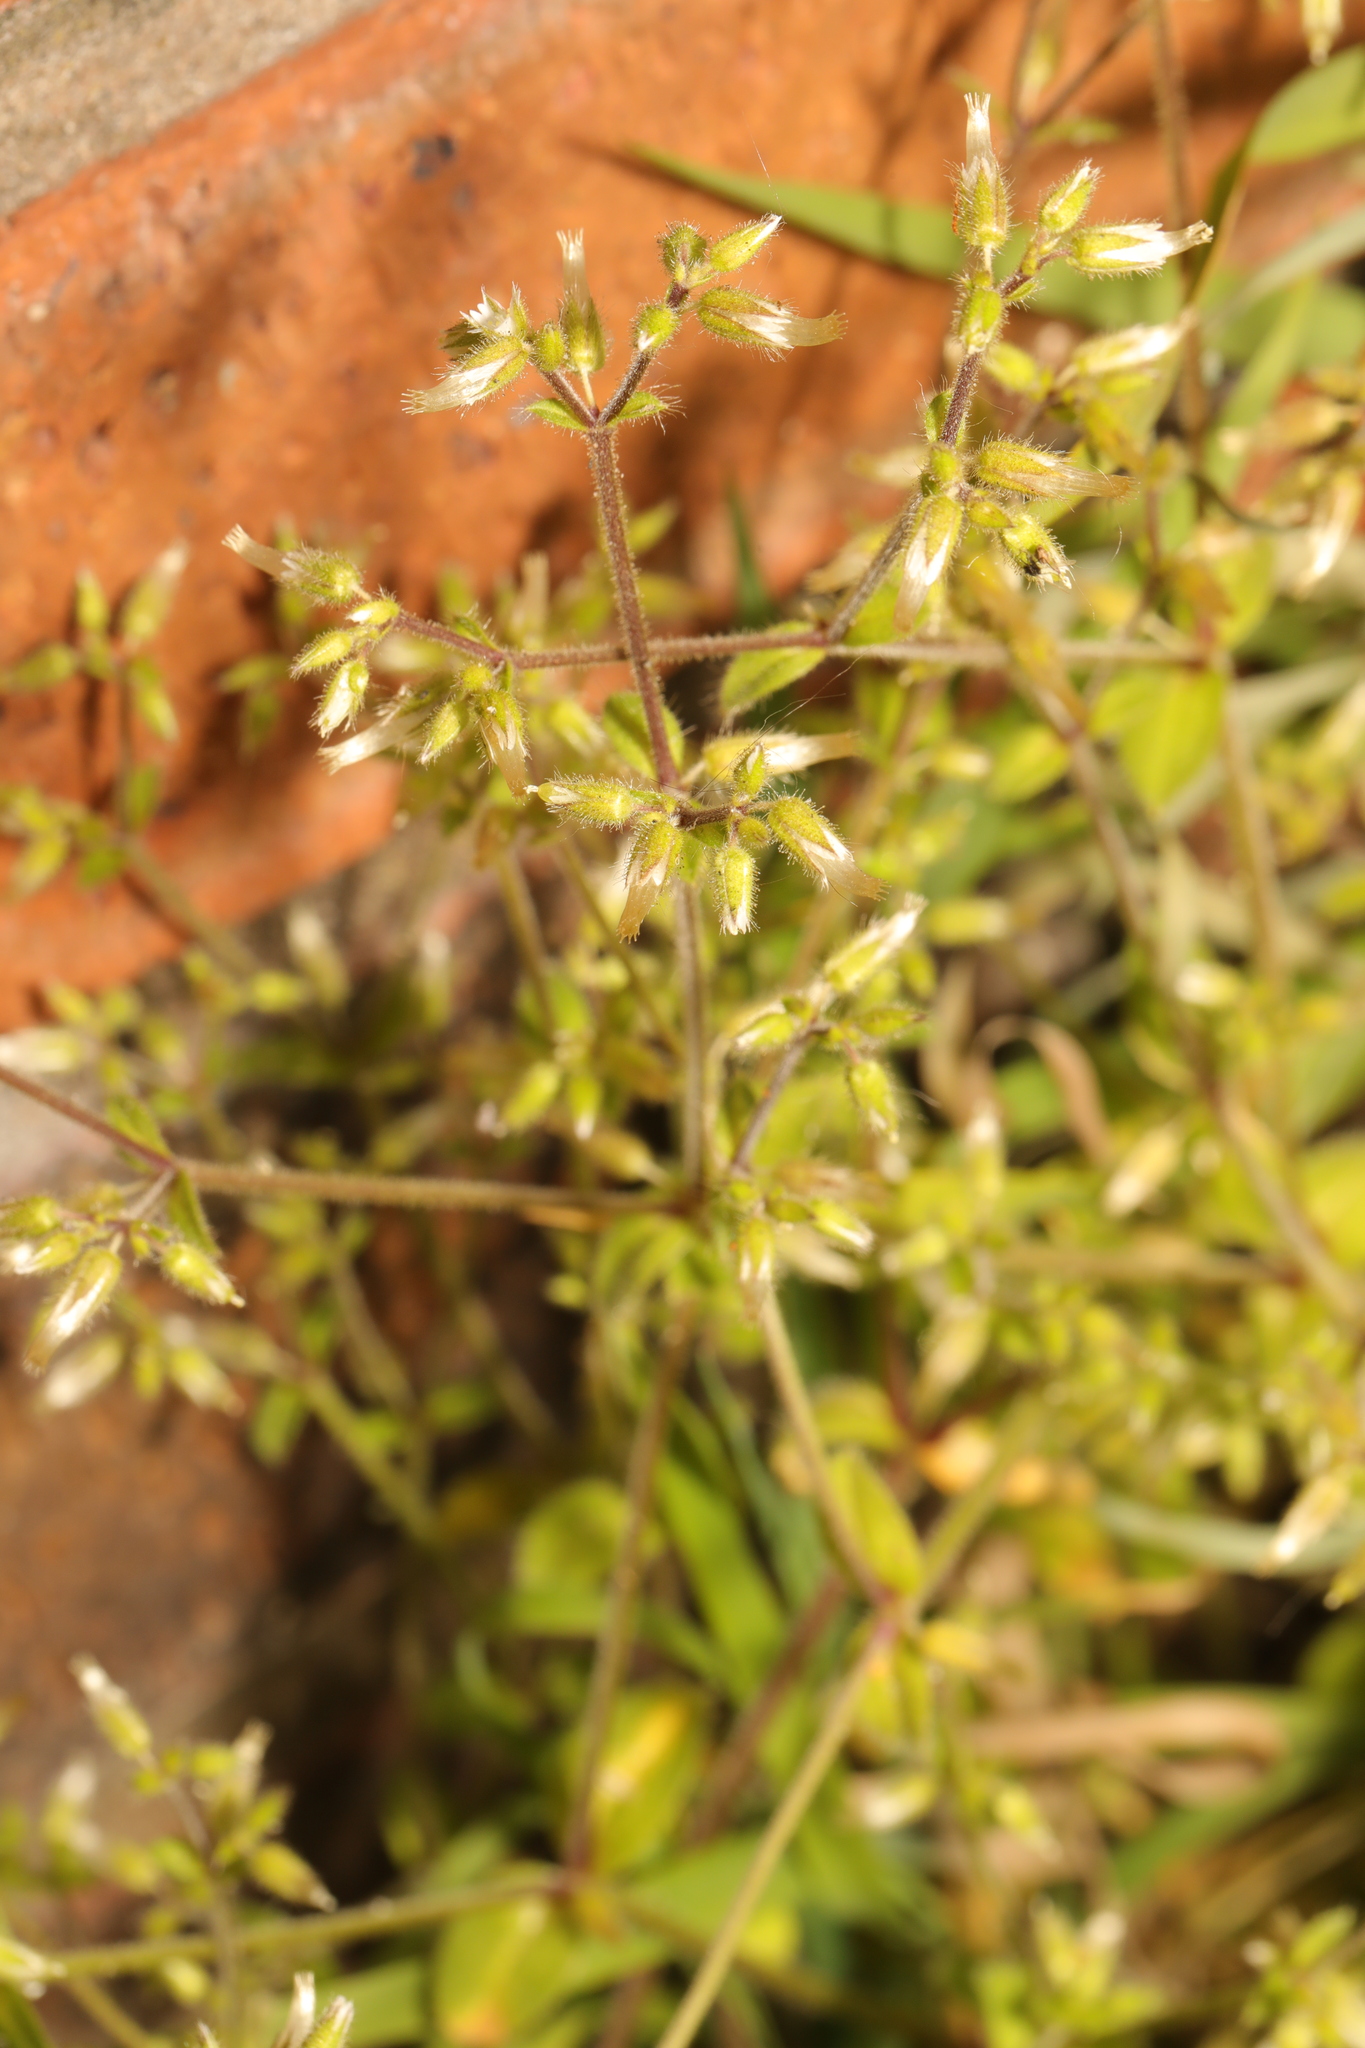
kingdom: Plantae
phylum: Tracheophyta
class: Magnoliopsida
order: Caryophyllales
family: Caryophyllaceae
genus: Cerastium
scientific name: Cerastium glomeratum
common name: Sticky chickweed
